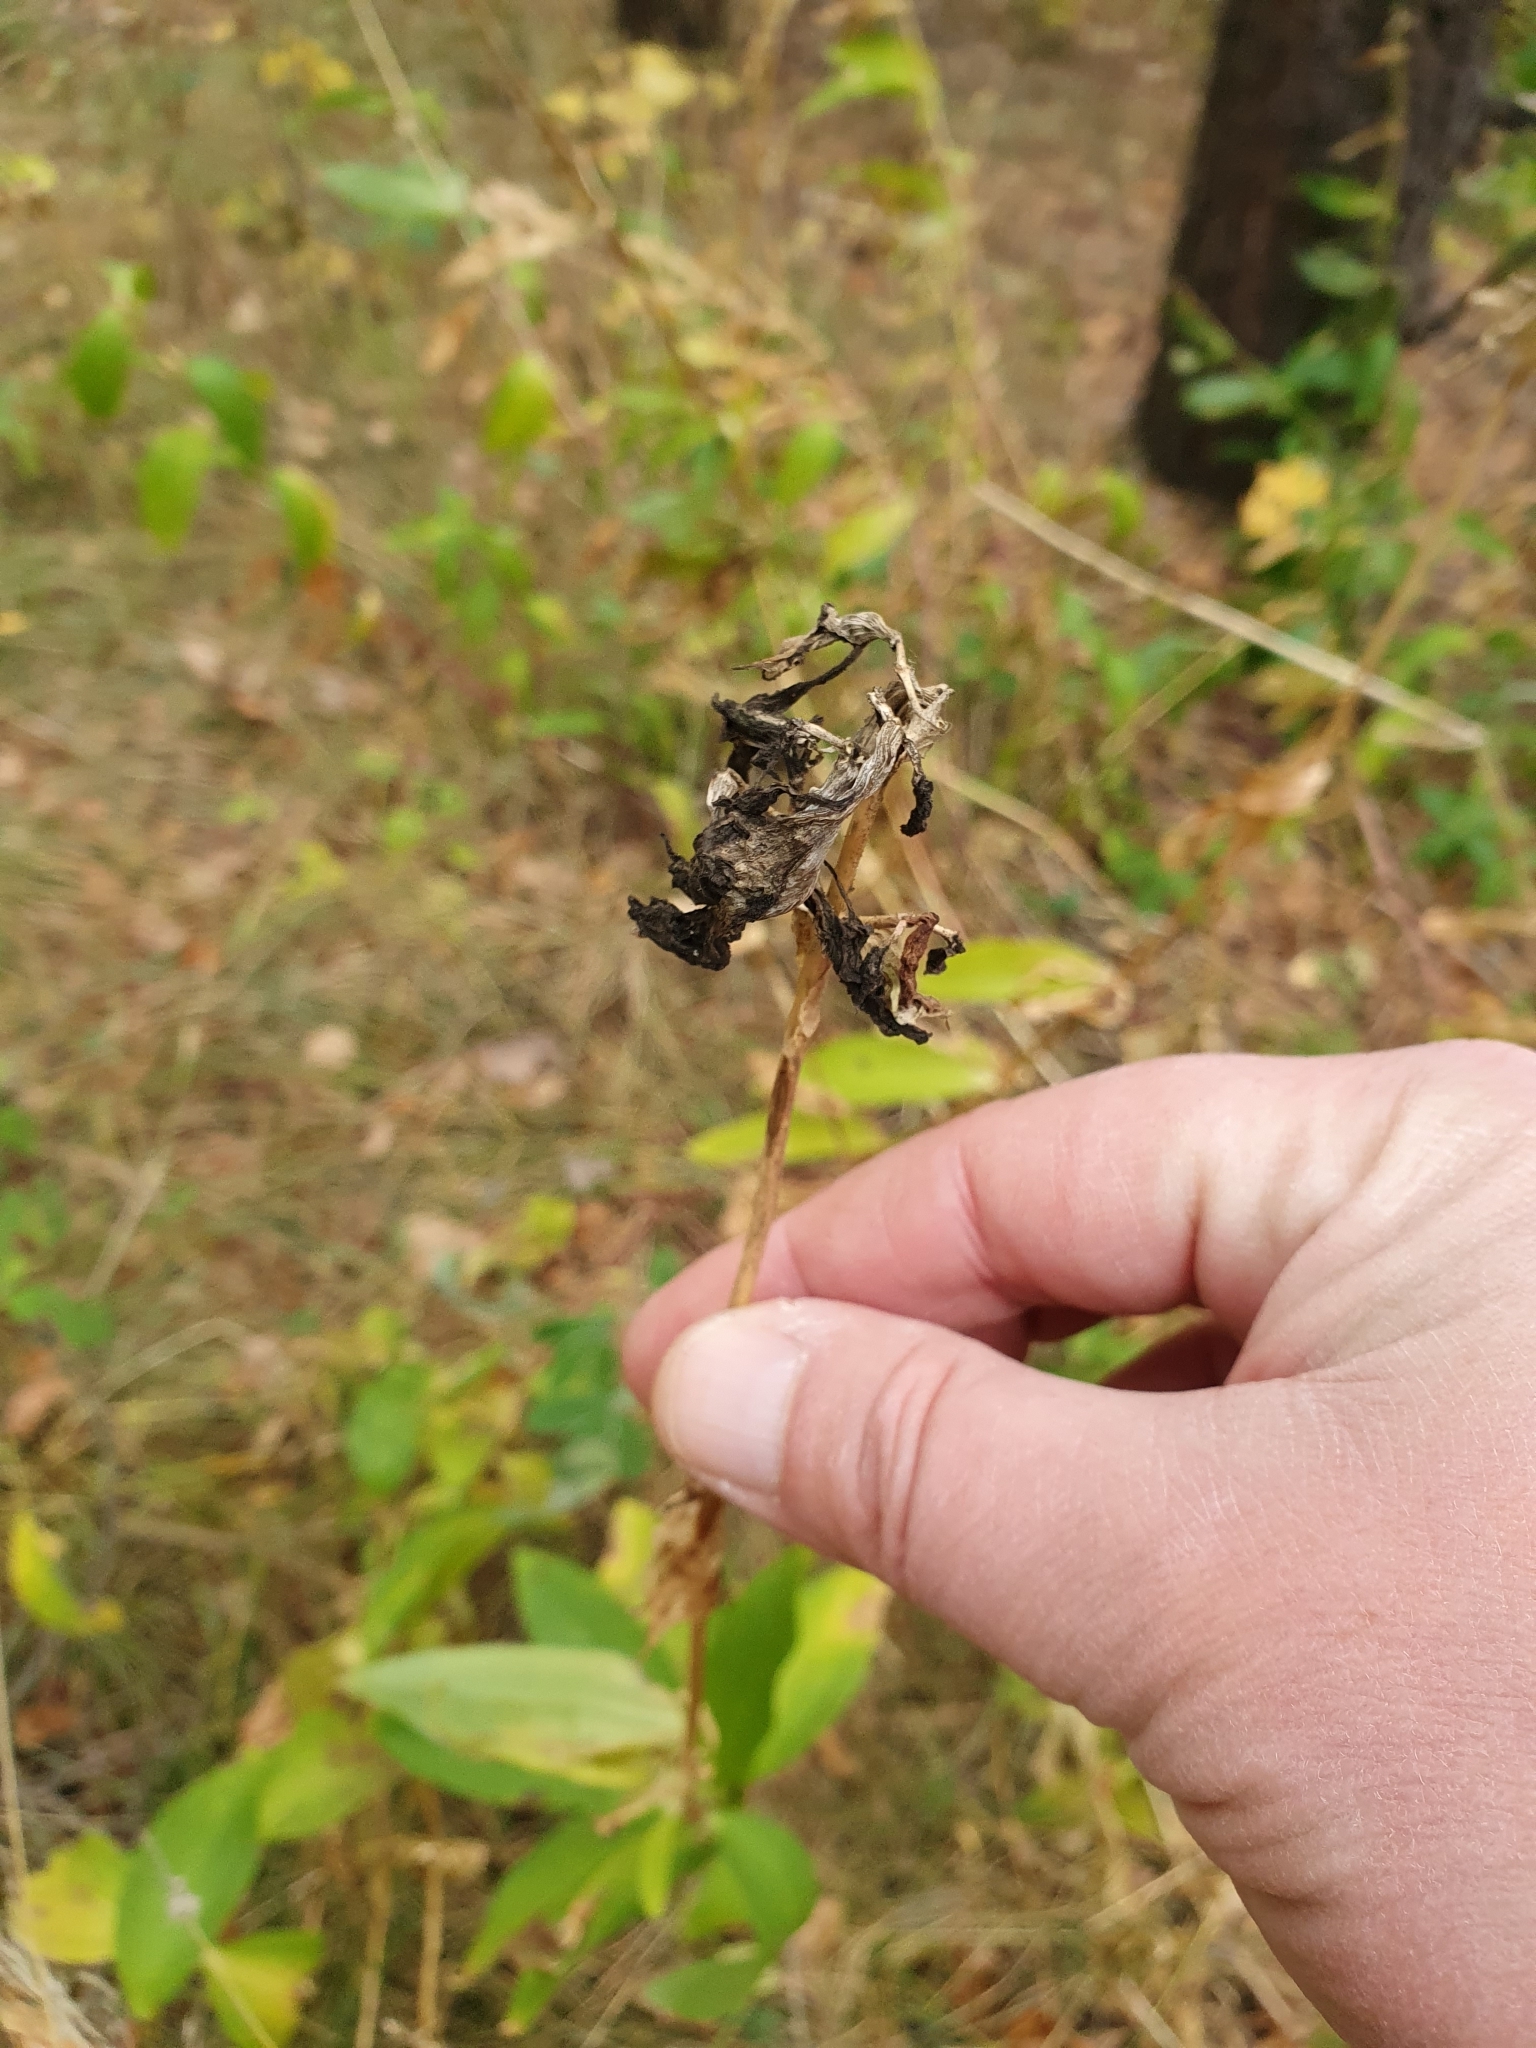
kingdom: Plantae
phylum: Tracheophyta
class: Magnoliopsida
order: Caryophyllales
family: Caryophyllaceae
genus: Saponaria
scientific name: Saponaria officinalis
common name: Soapwort
